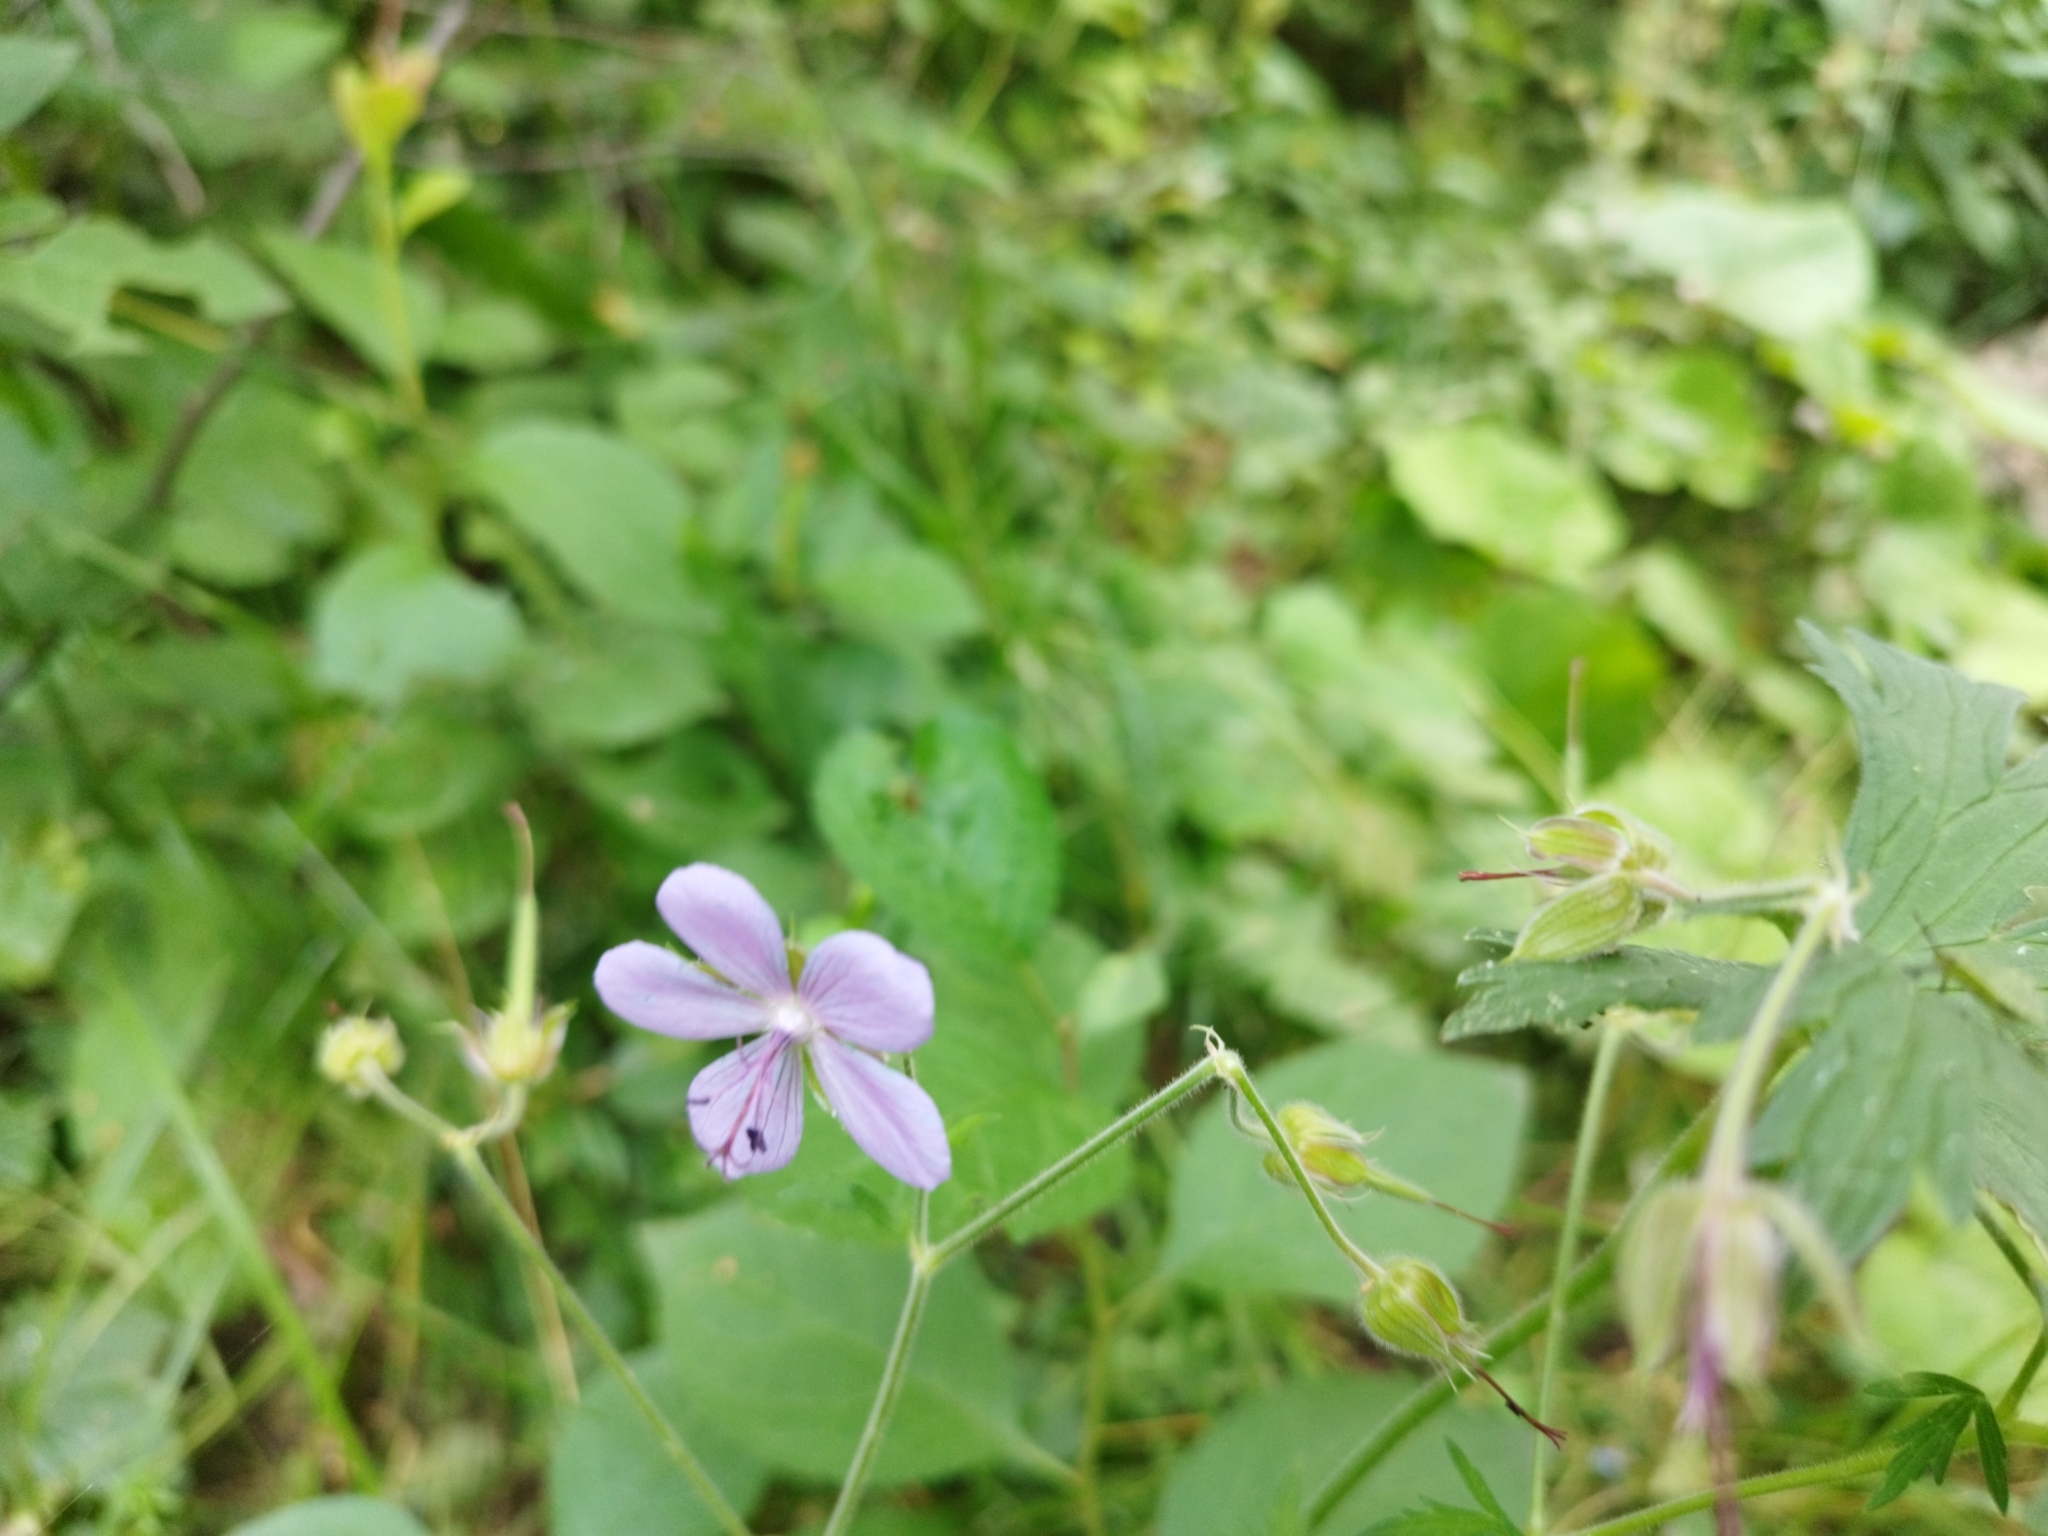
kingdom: Plantae
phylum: Tracheophyta
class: Magnoliopsida
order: Geraniales
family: Geraniaceae
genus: Geranium
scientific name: Geranium pratense
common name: Meadow crane's-bill
